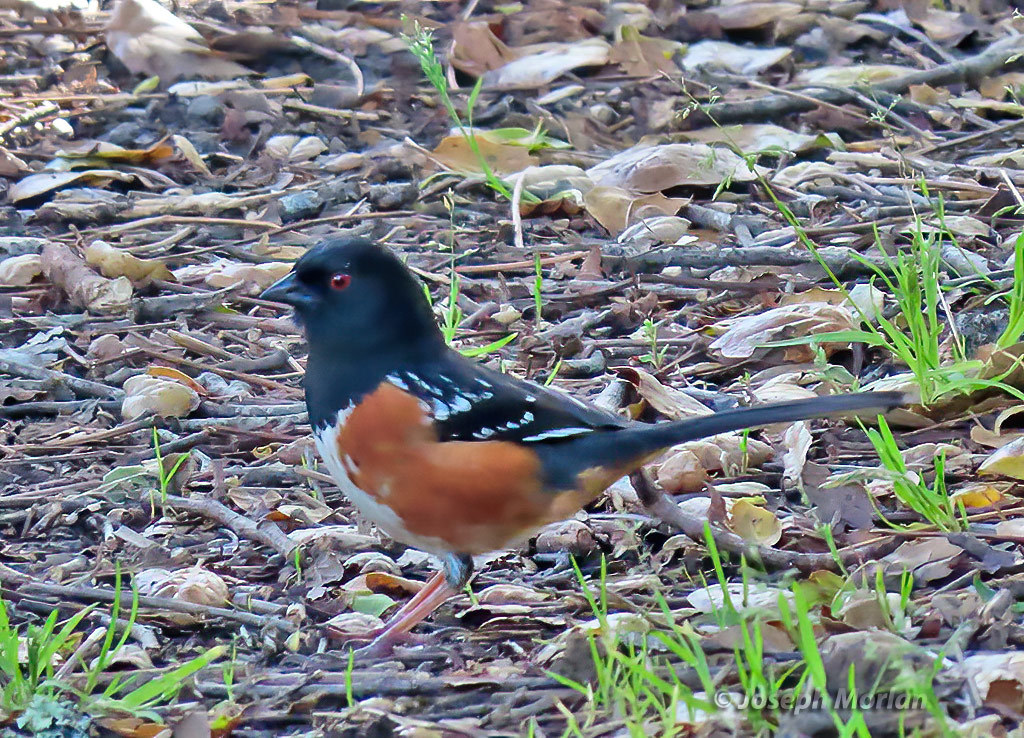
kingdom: Animalia
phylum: Chordata
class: Aves
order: Passeriformes
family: Passerellidae
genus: Pipilo
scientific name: Pipilo maculatus
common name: Spotted towhee
